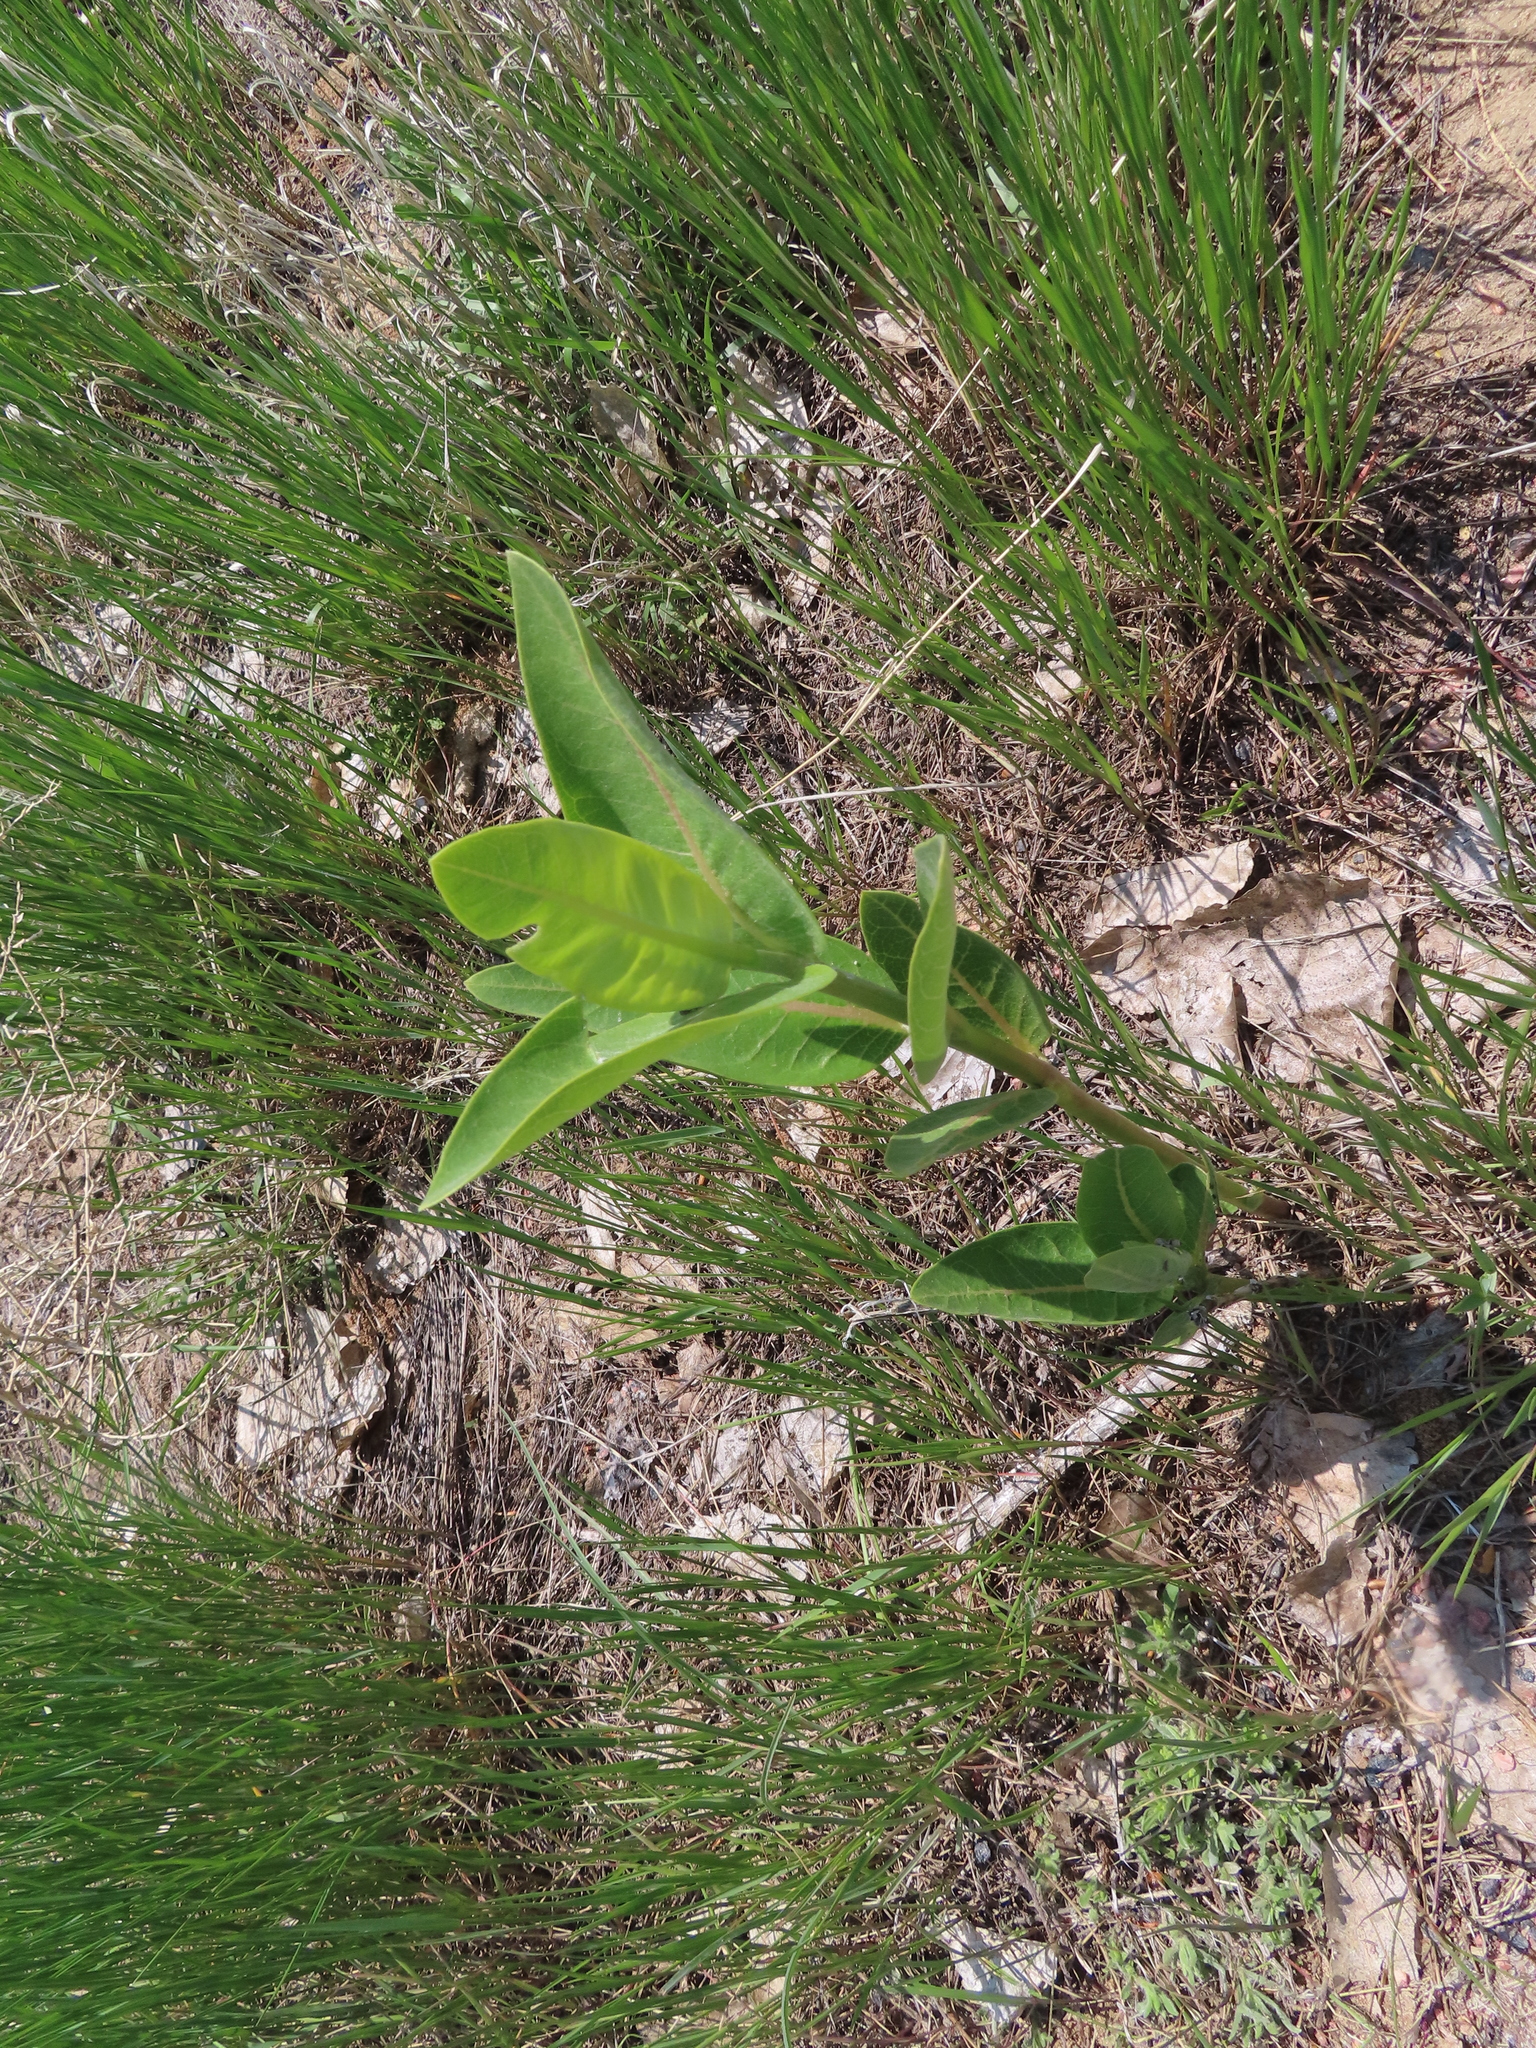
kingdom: Plantae
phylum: Tracheophyta
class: Magnoliopsida
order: Gentianales
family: Apocynaceae
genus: Asclepias
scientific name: Asclepias speciosa
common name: Showy milkweed
